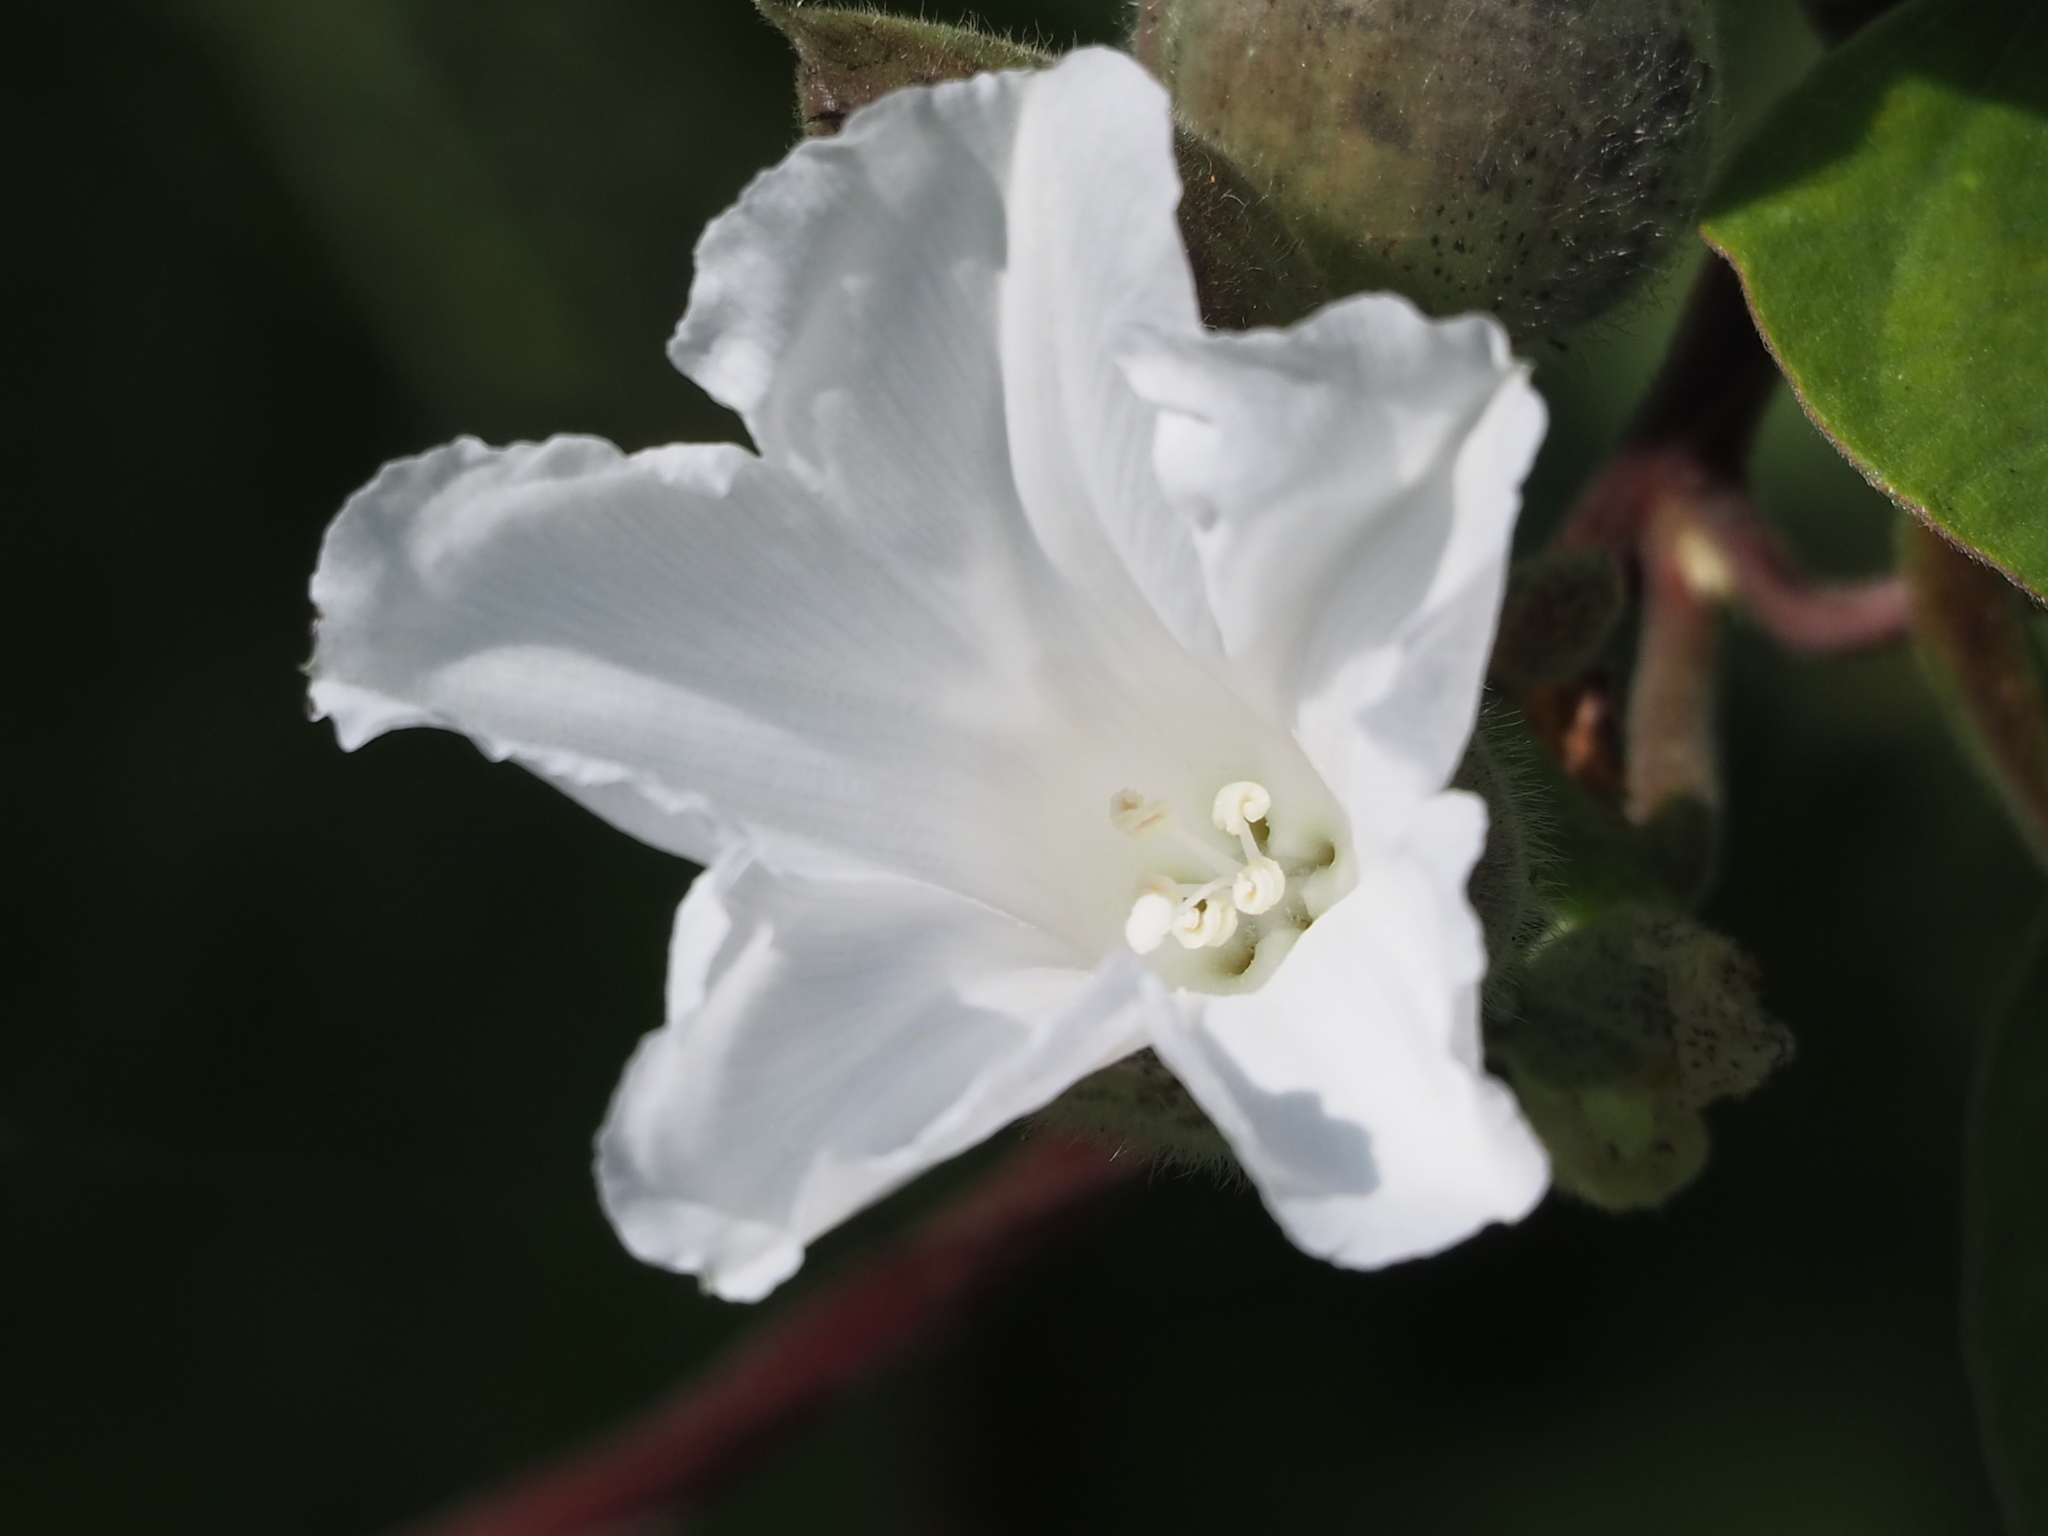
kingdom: Plantae
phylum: Tracheophyta
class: Magnoliopsida
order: Solanales
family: Convolvulaceae
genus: Operculina
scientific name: Operculina turpethum
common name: Transparent wood-rose
